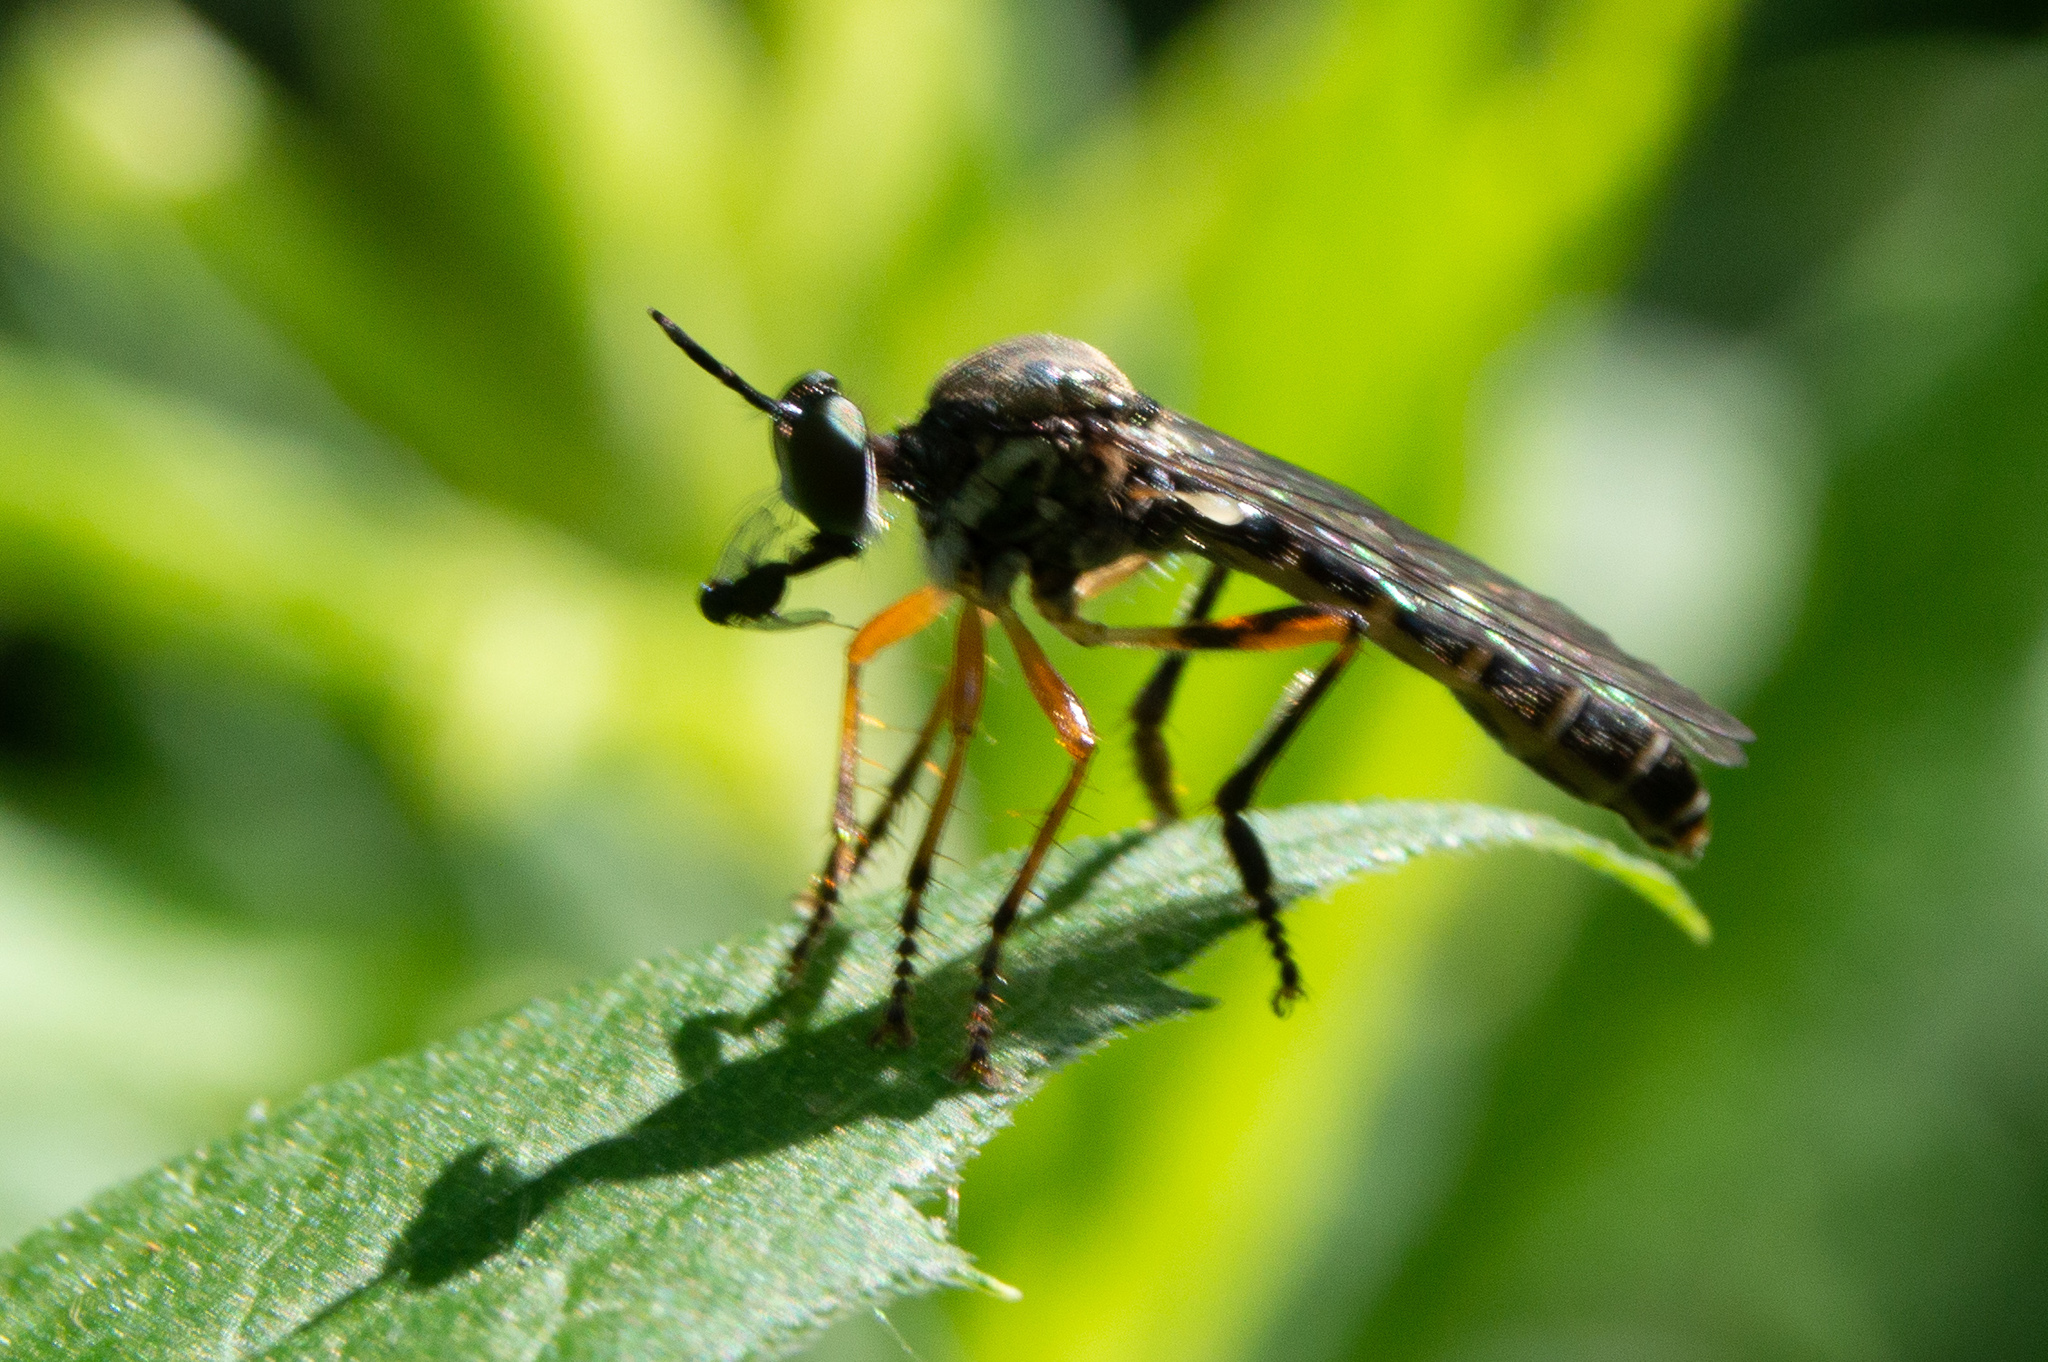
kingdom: Animalia
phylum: Arthropoda
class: Insecta
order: Diptera
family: Asilidae
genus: Dioctria
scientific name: Dioctria hyalipennis
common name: Stripe-legged robberfly
